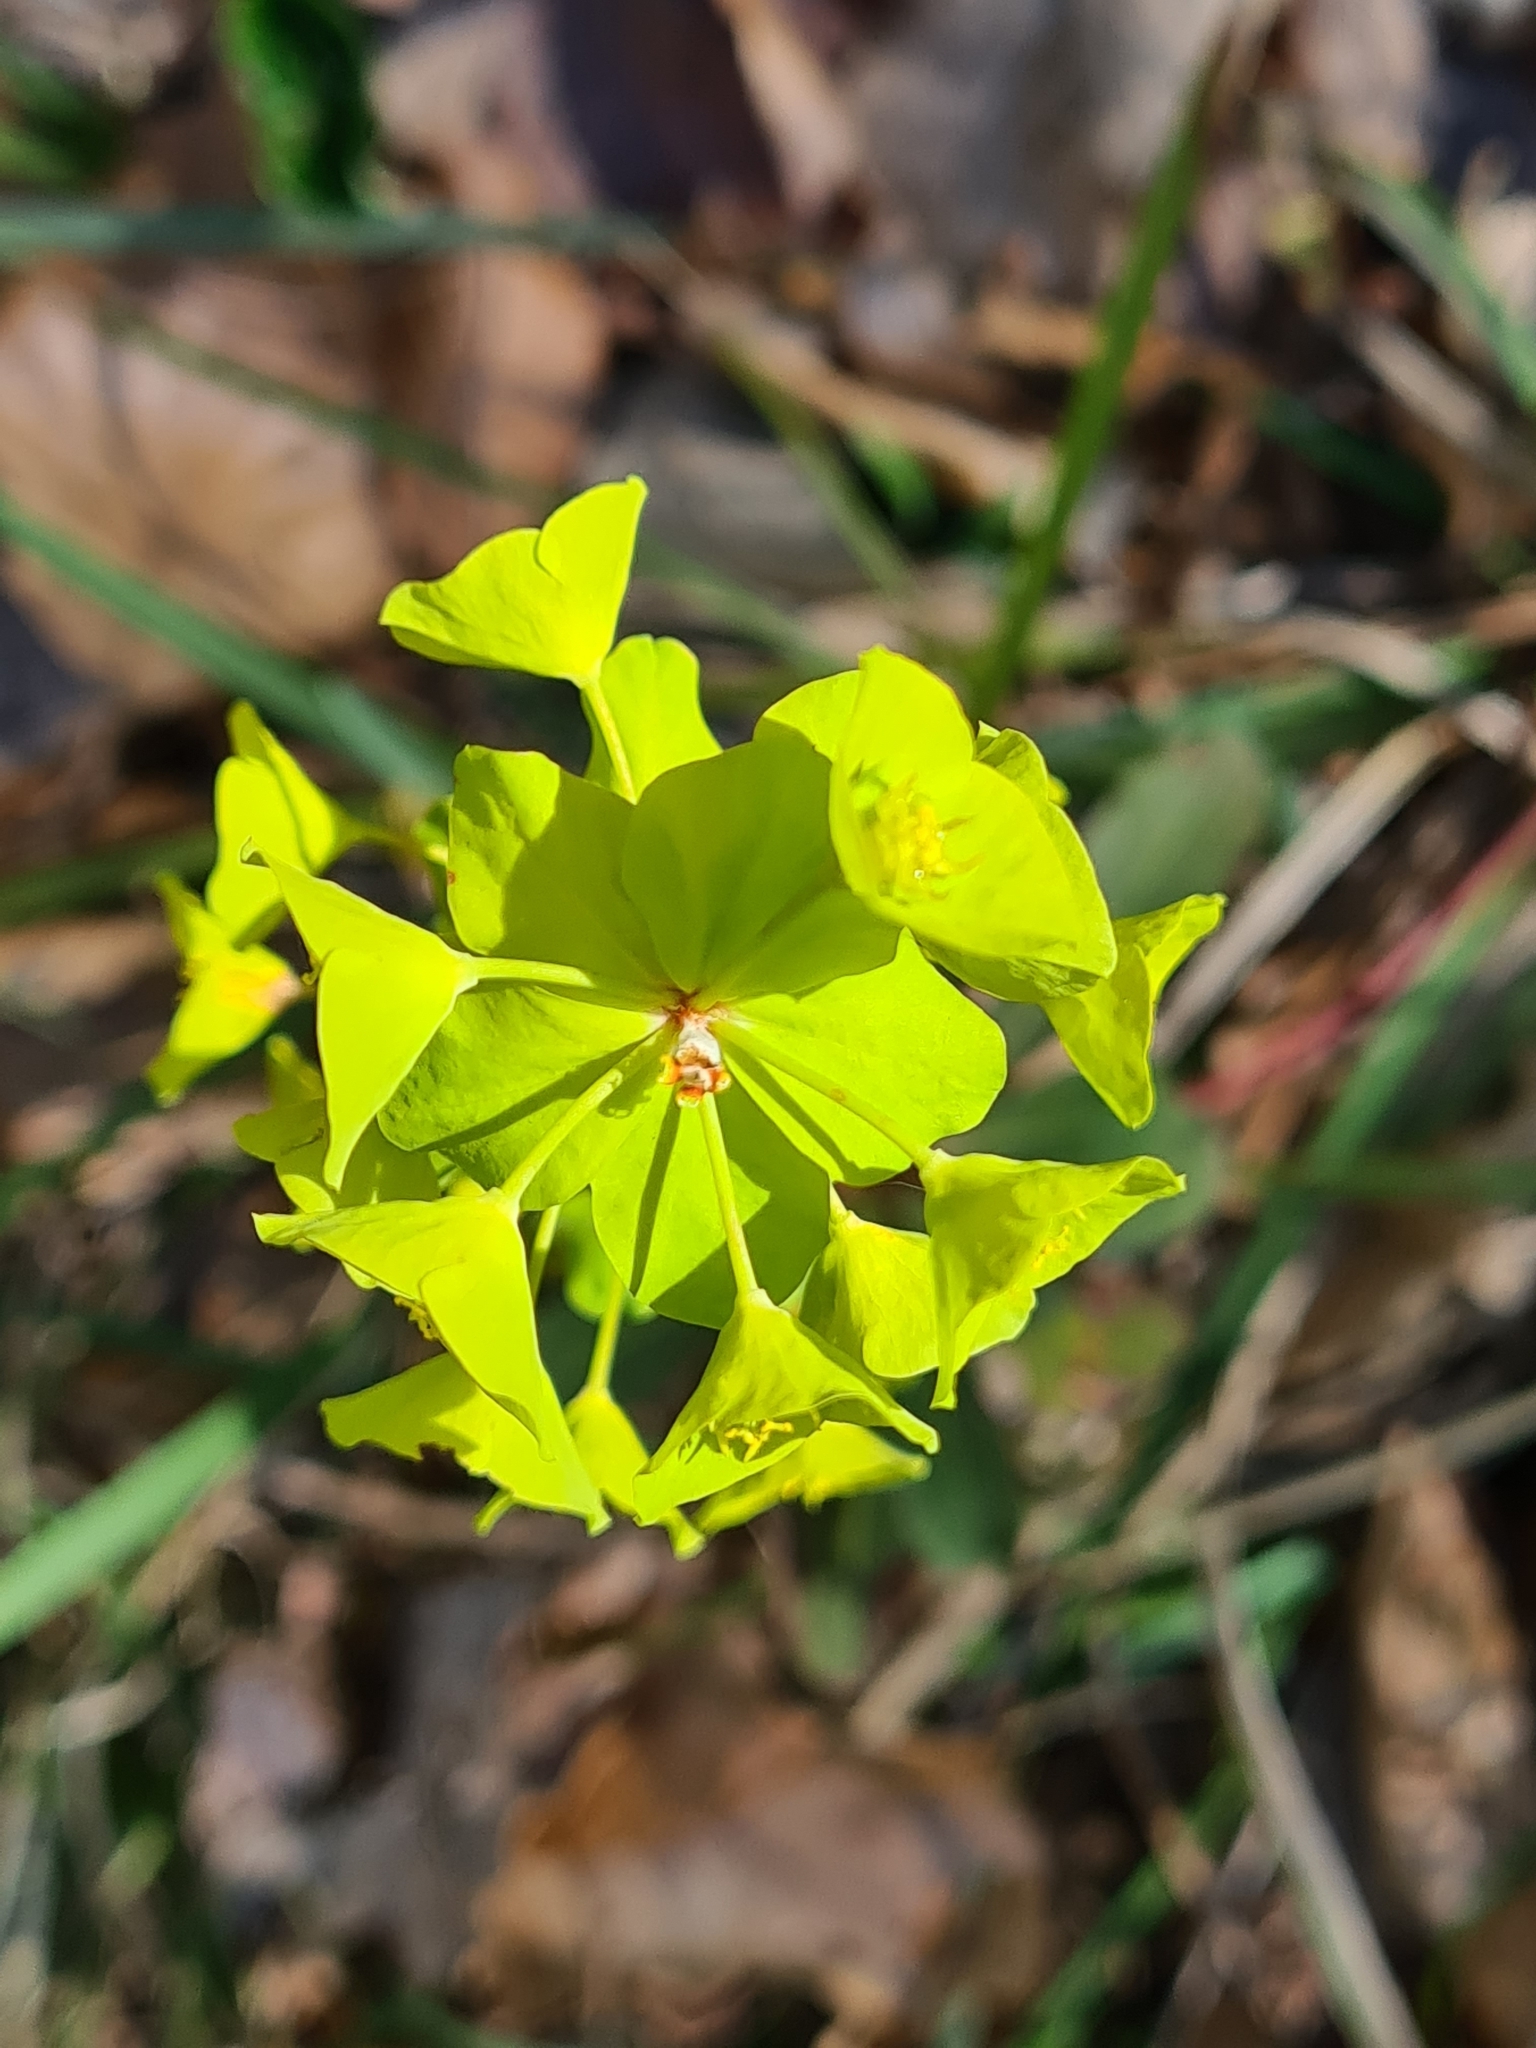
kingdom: Plantae
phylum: Tracheophyta
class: Magnoliopsida
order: Malpighiales
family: Euphorbiaceae
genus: Euphorbia
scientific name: Euphorbia amygdaloides
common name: Wood spurge
